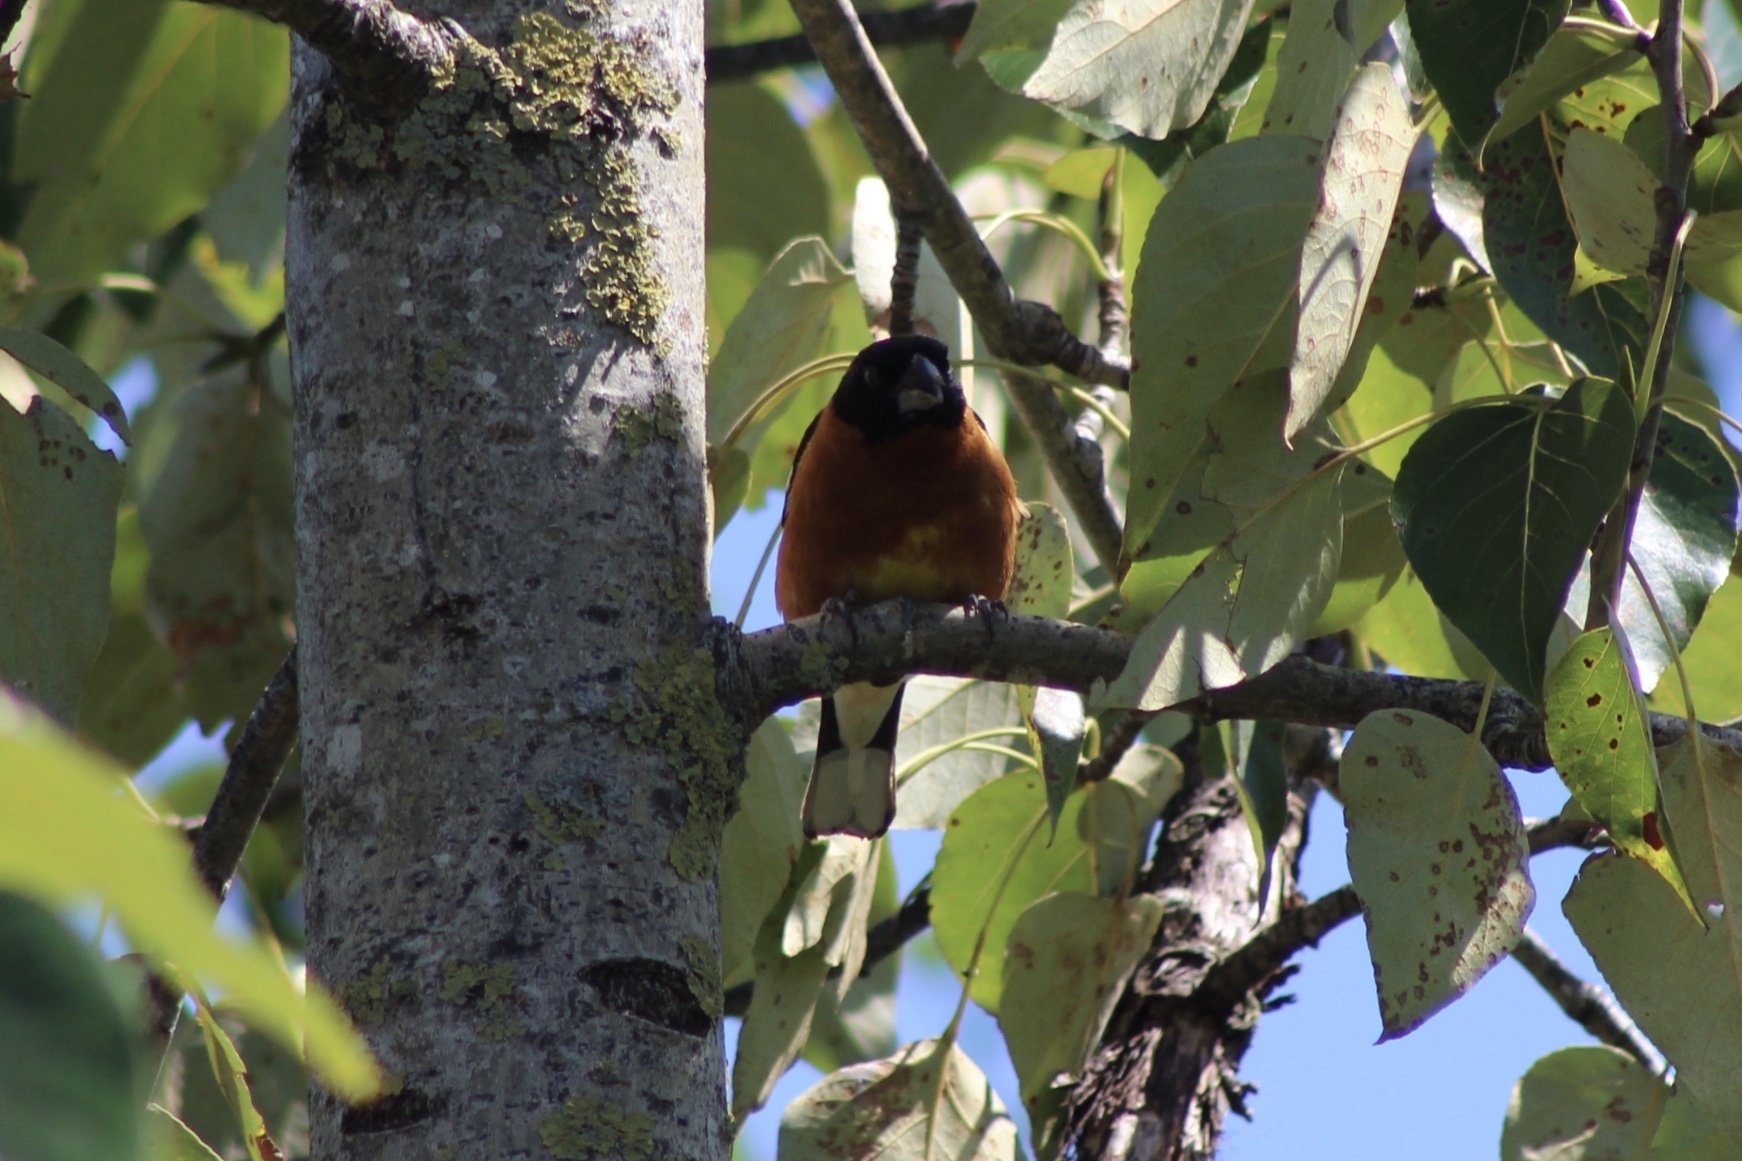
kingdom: Animalia
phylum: Chordata
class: Aves
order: Passeriformes
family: Cardinalidae
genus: Pheucticus
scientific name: Pheucticus melanocephalus
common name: Black-headed grosbeak
